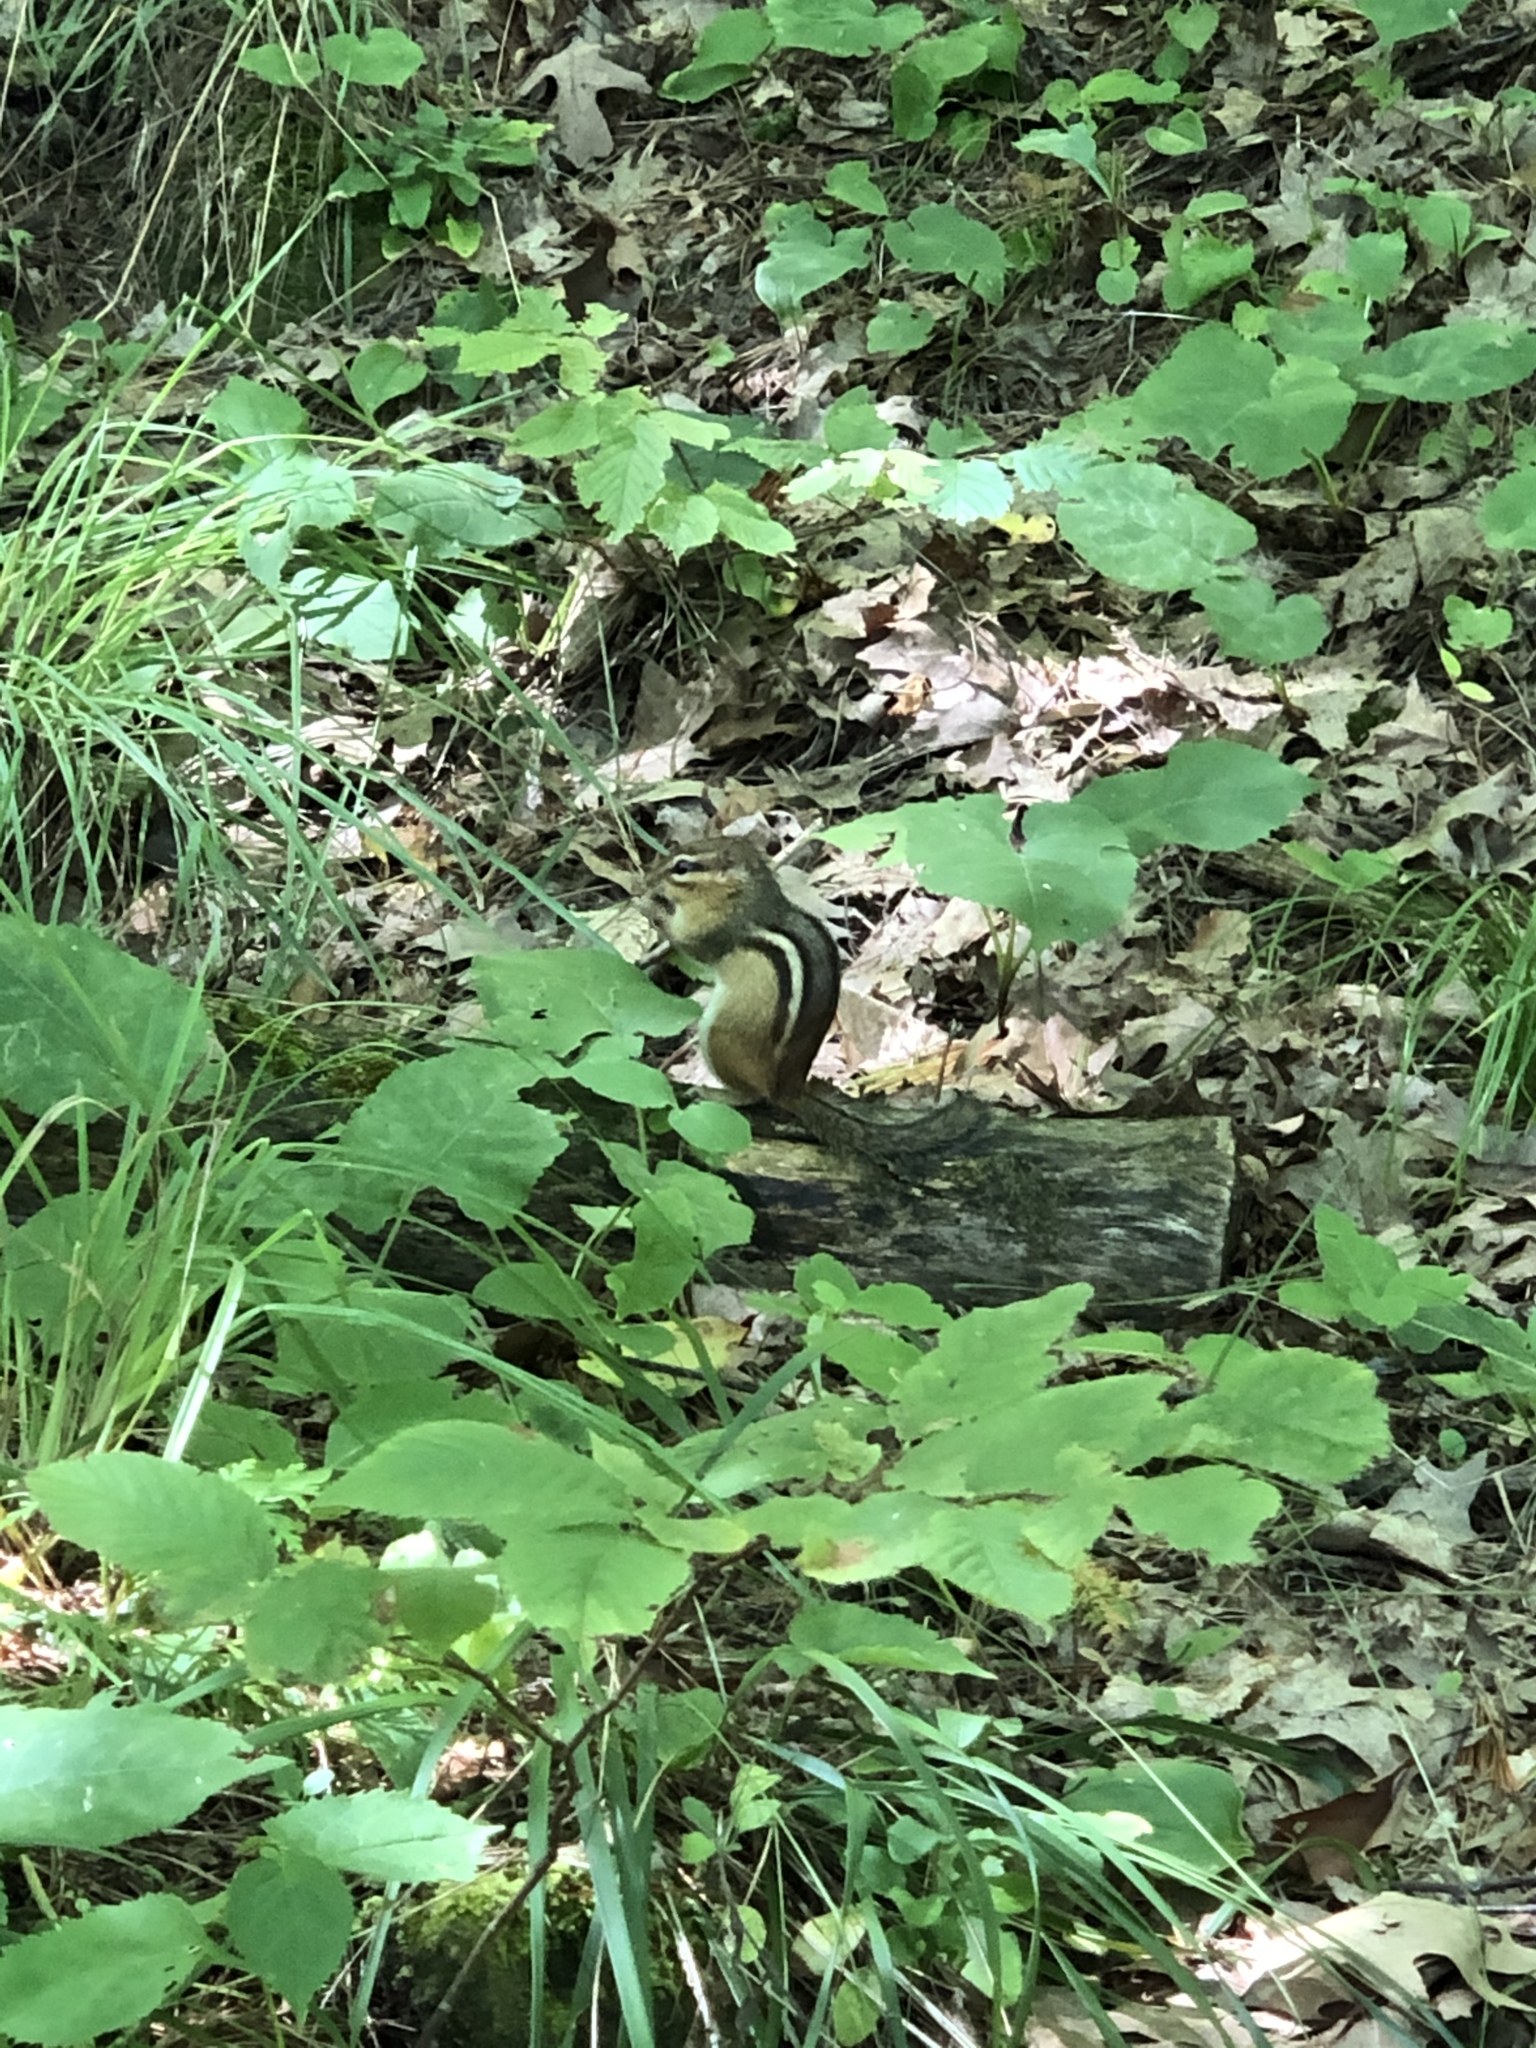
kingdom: Animalia
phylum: Chordata
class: Mammalia
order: Rodentia
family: Sciuridae
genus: Tamias
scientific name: Tamias striatus
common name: Eastern chipmunk
